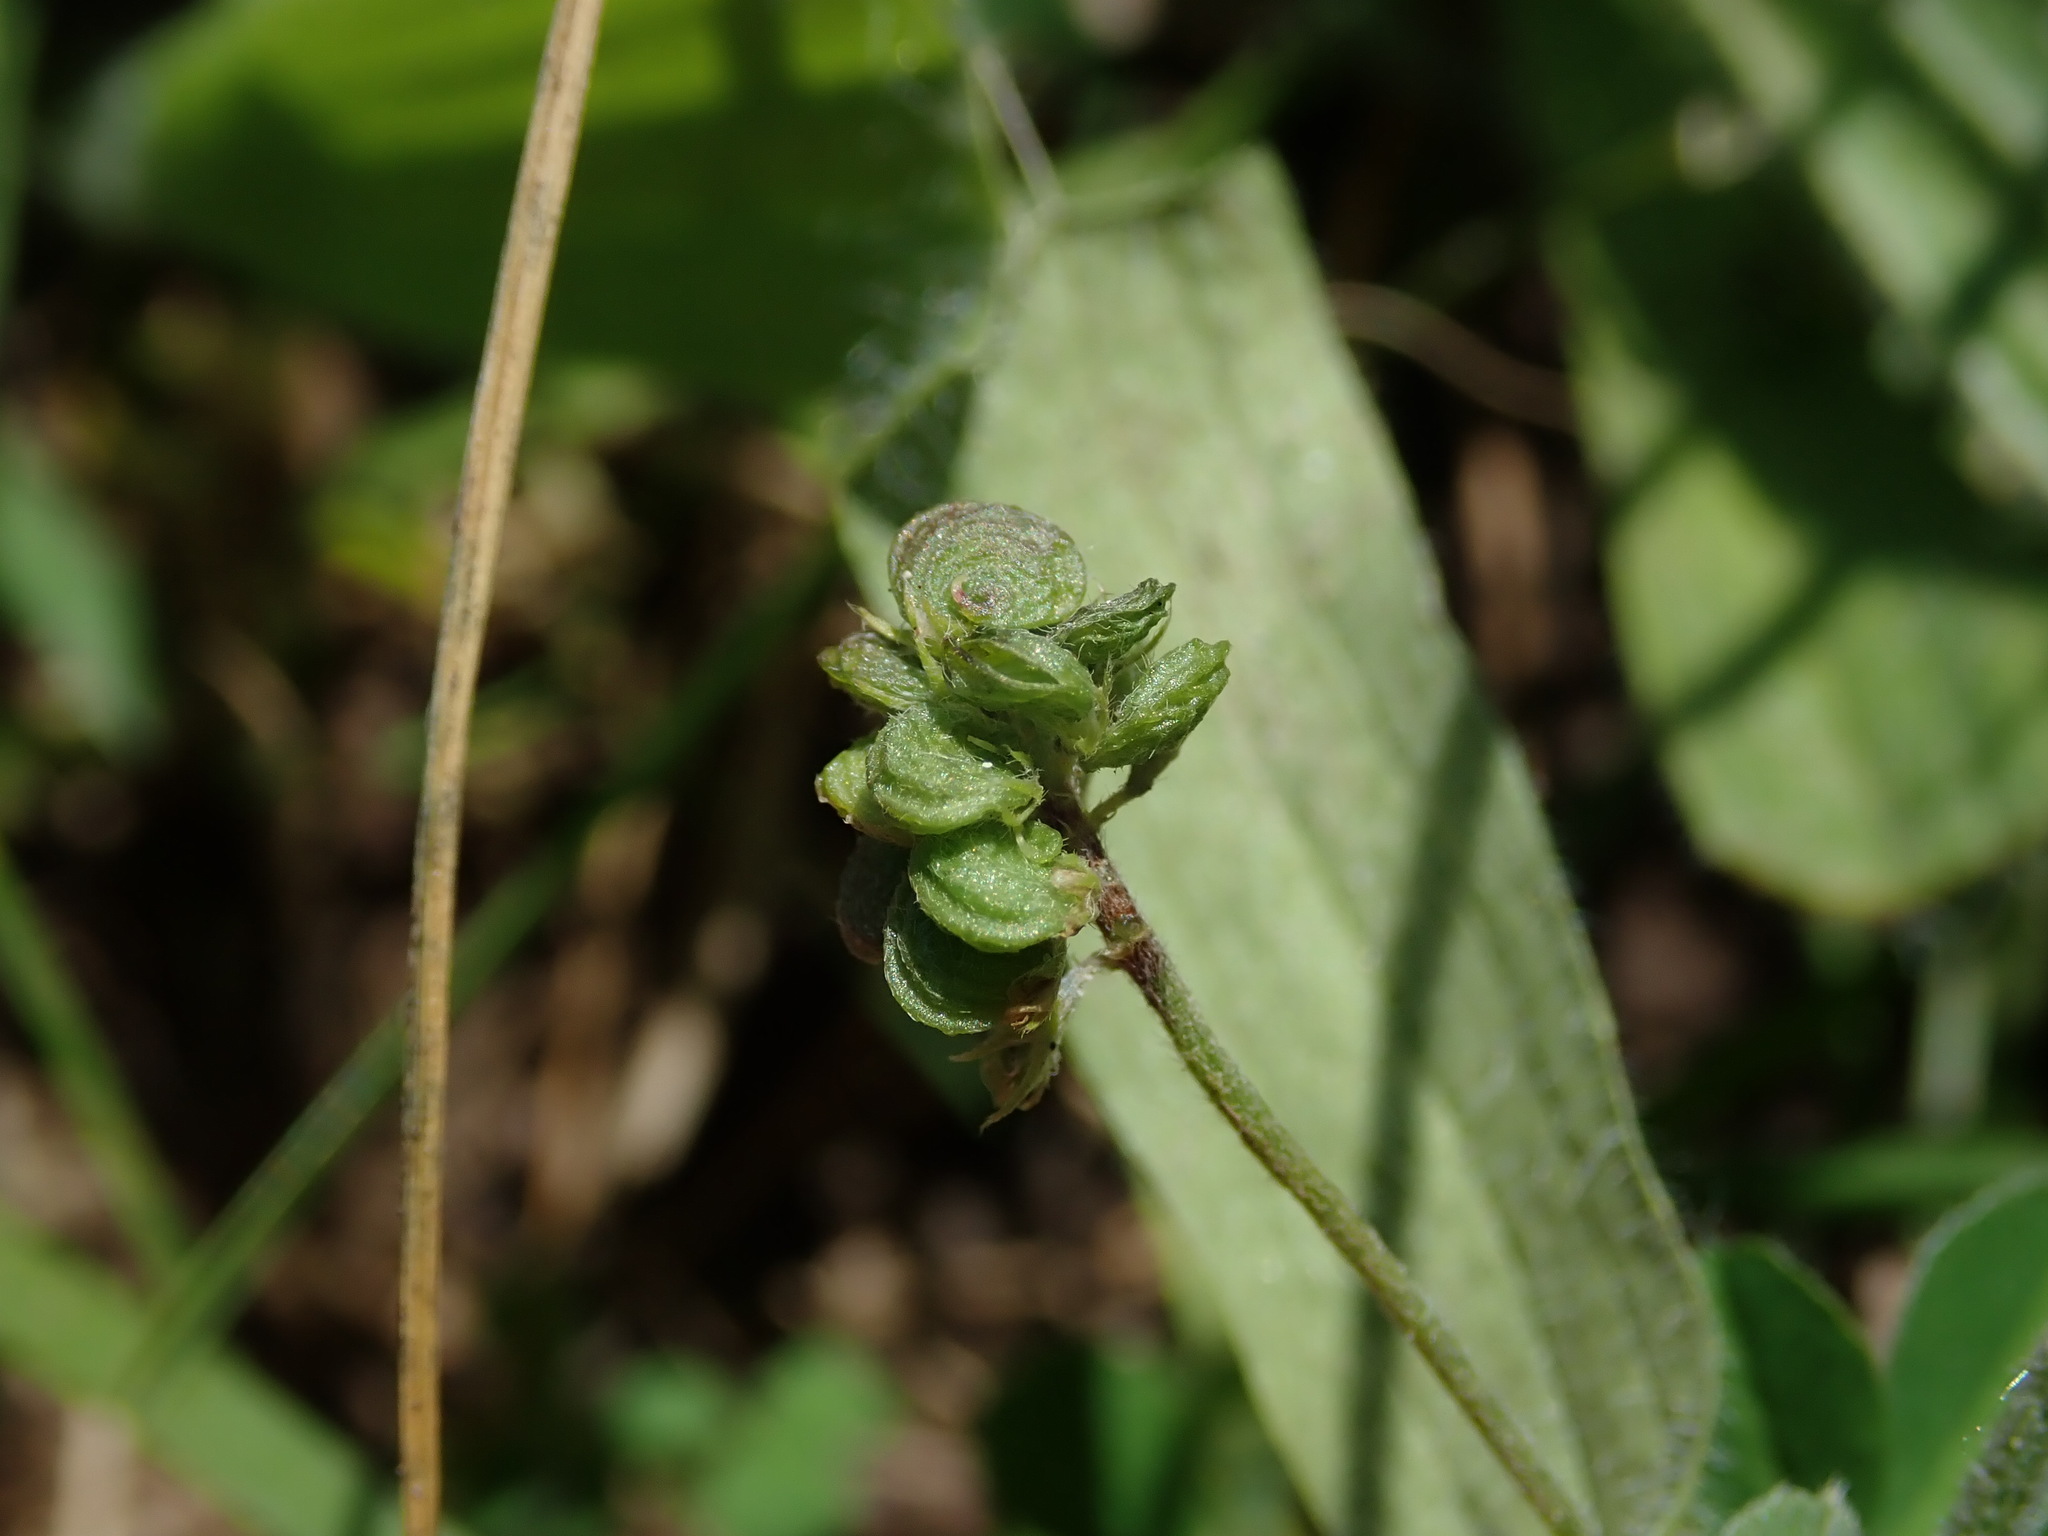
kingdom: Plantae
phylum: Tracheophyta
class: Magnoliopsida
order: Fabales
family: Fabaceae
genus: Medicago
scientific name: Medicago lupulina
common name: Black medick
